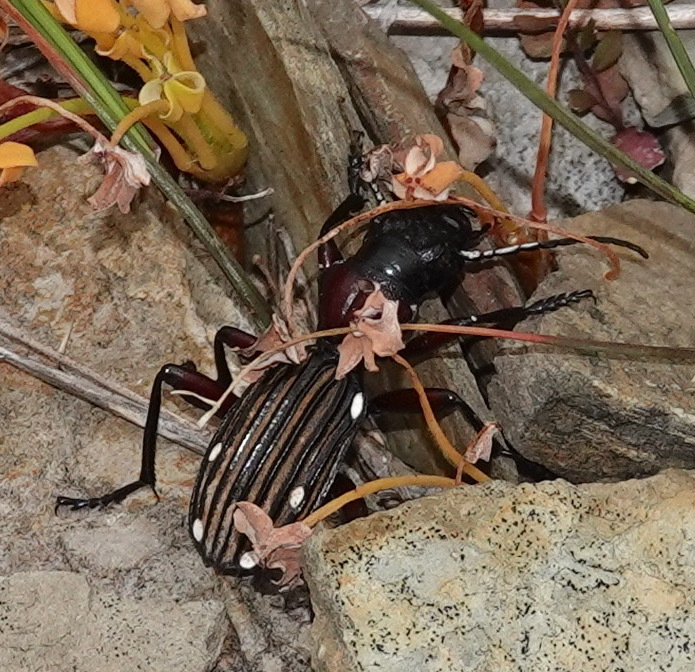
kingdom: Animalia
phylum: Arthropoda
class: Insecta
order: Coleoptera
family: Carabidae
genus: Anthia
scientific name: Anthia decemguttata
